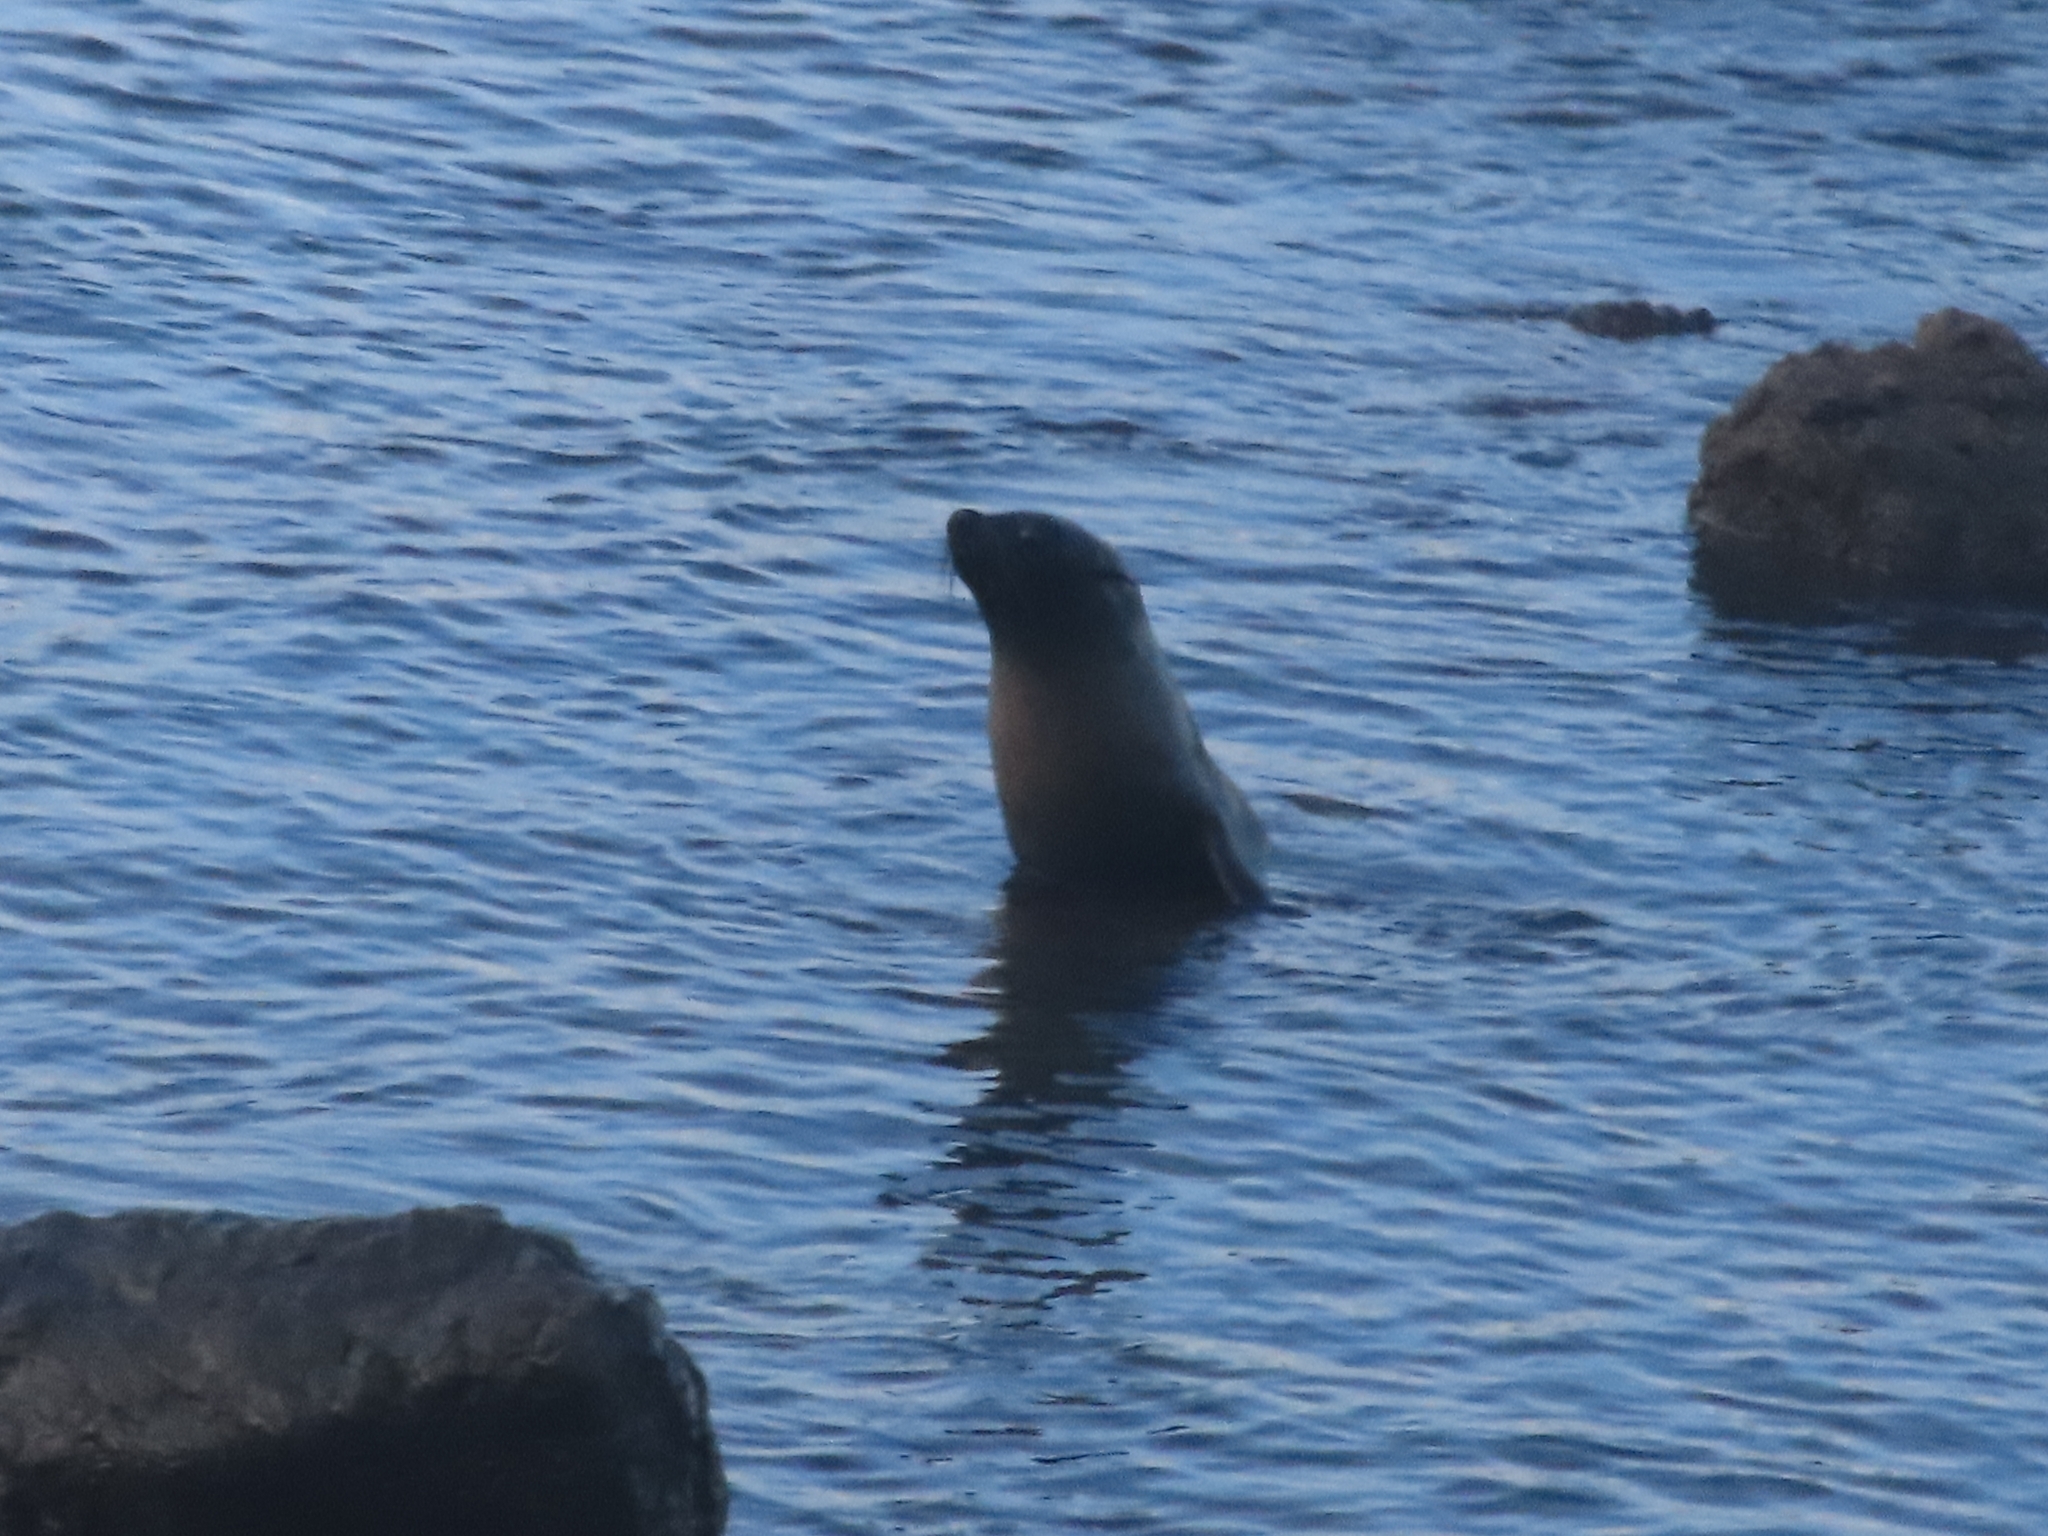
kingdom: Animalia
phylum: Chordata
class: Mammalia
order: Carnivora
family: Otariidae
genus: Arctocephalus
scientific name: Arctocephalus forsteri
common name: New zealand fur seal
